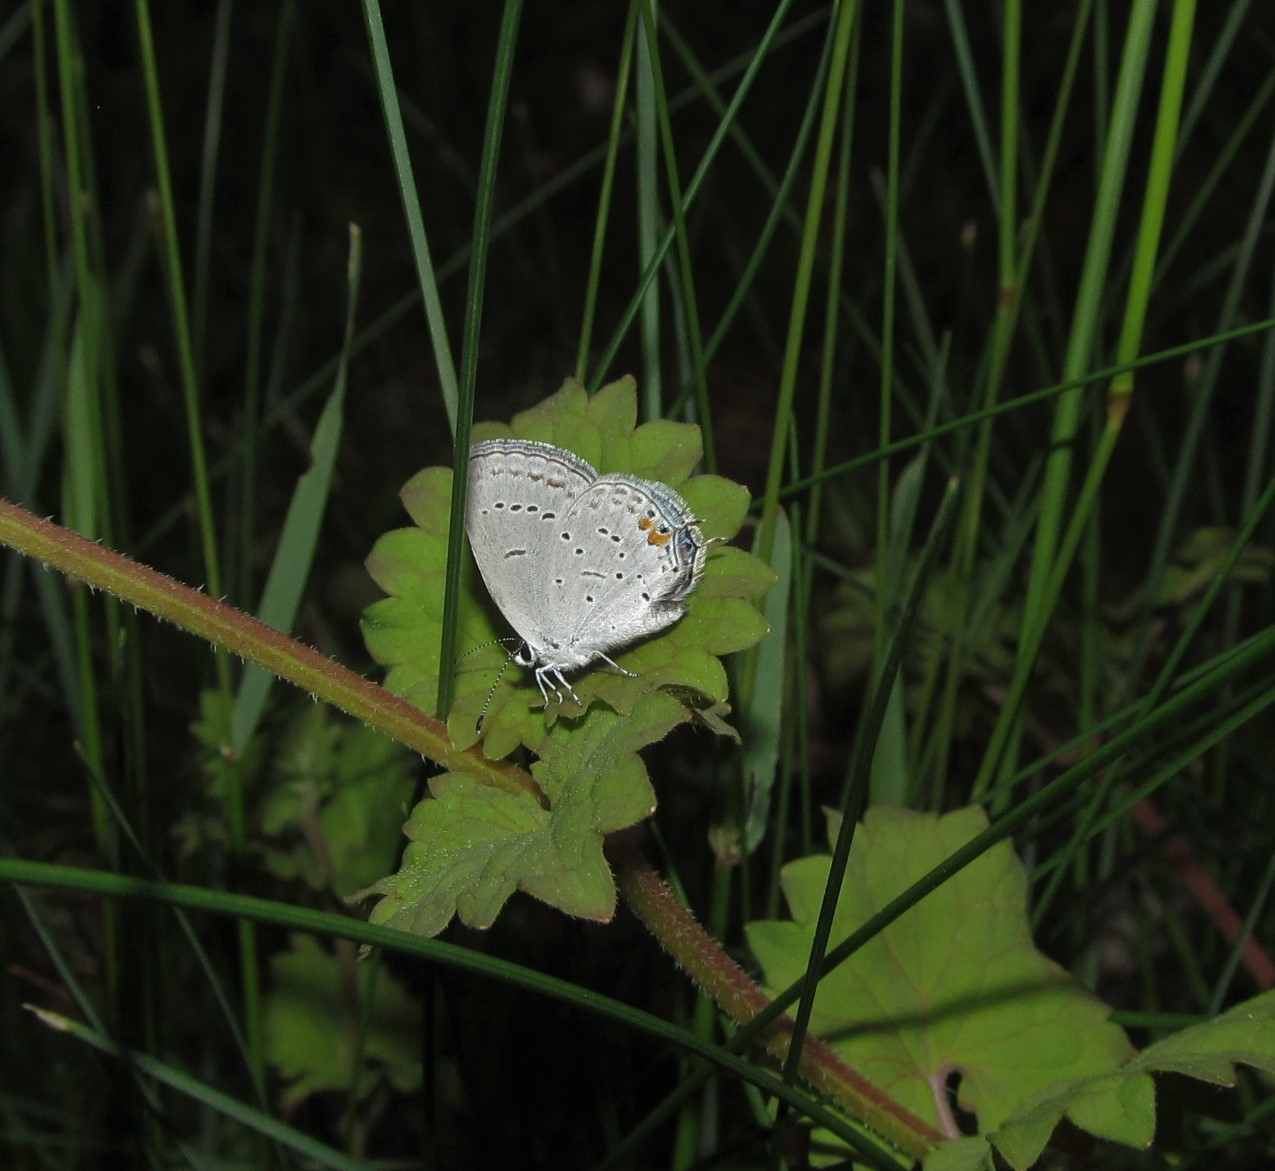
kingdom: Animalia
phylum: Arthropoda
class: Insecta
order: Lepidoptera
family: Lycaenidae
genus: Elkalyce
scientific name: Elkalyce comyntas
